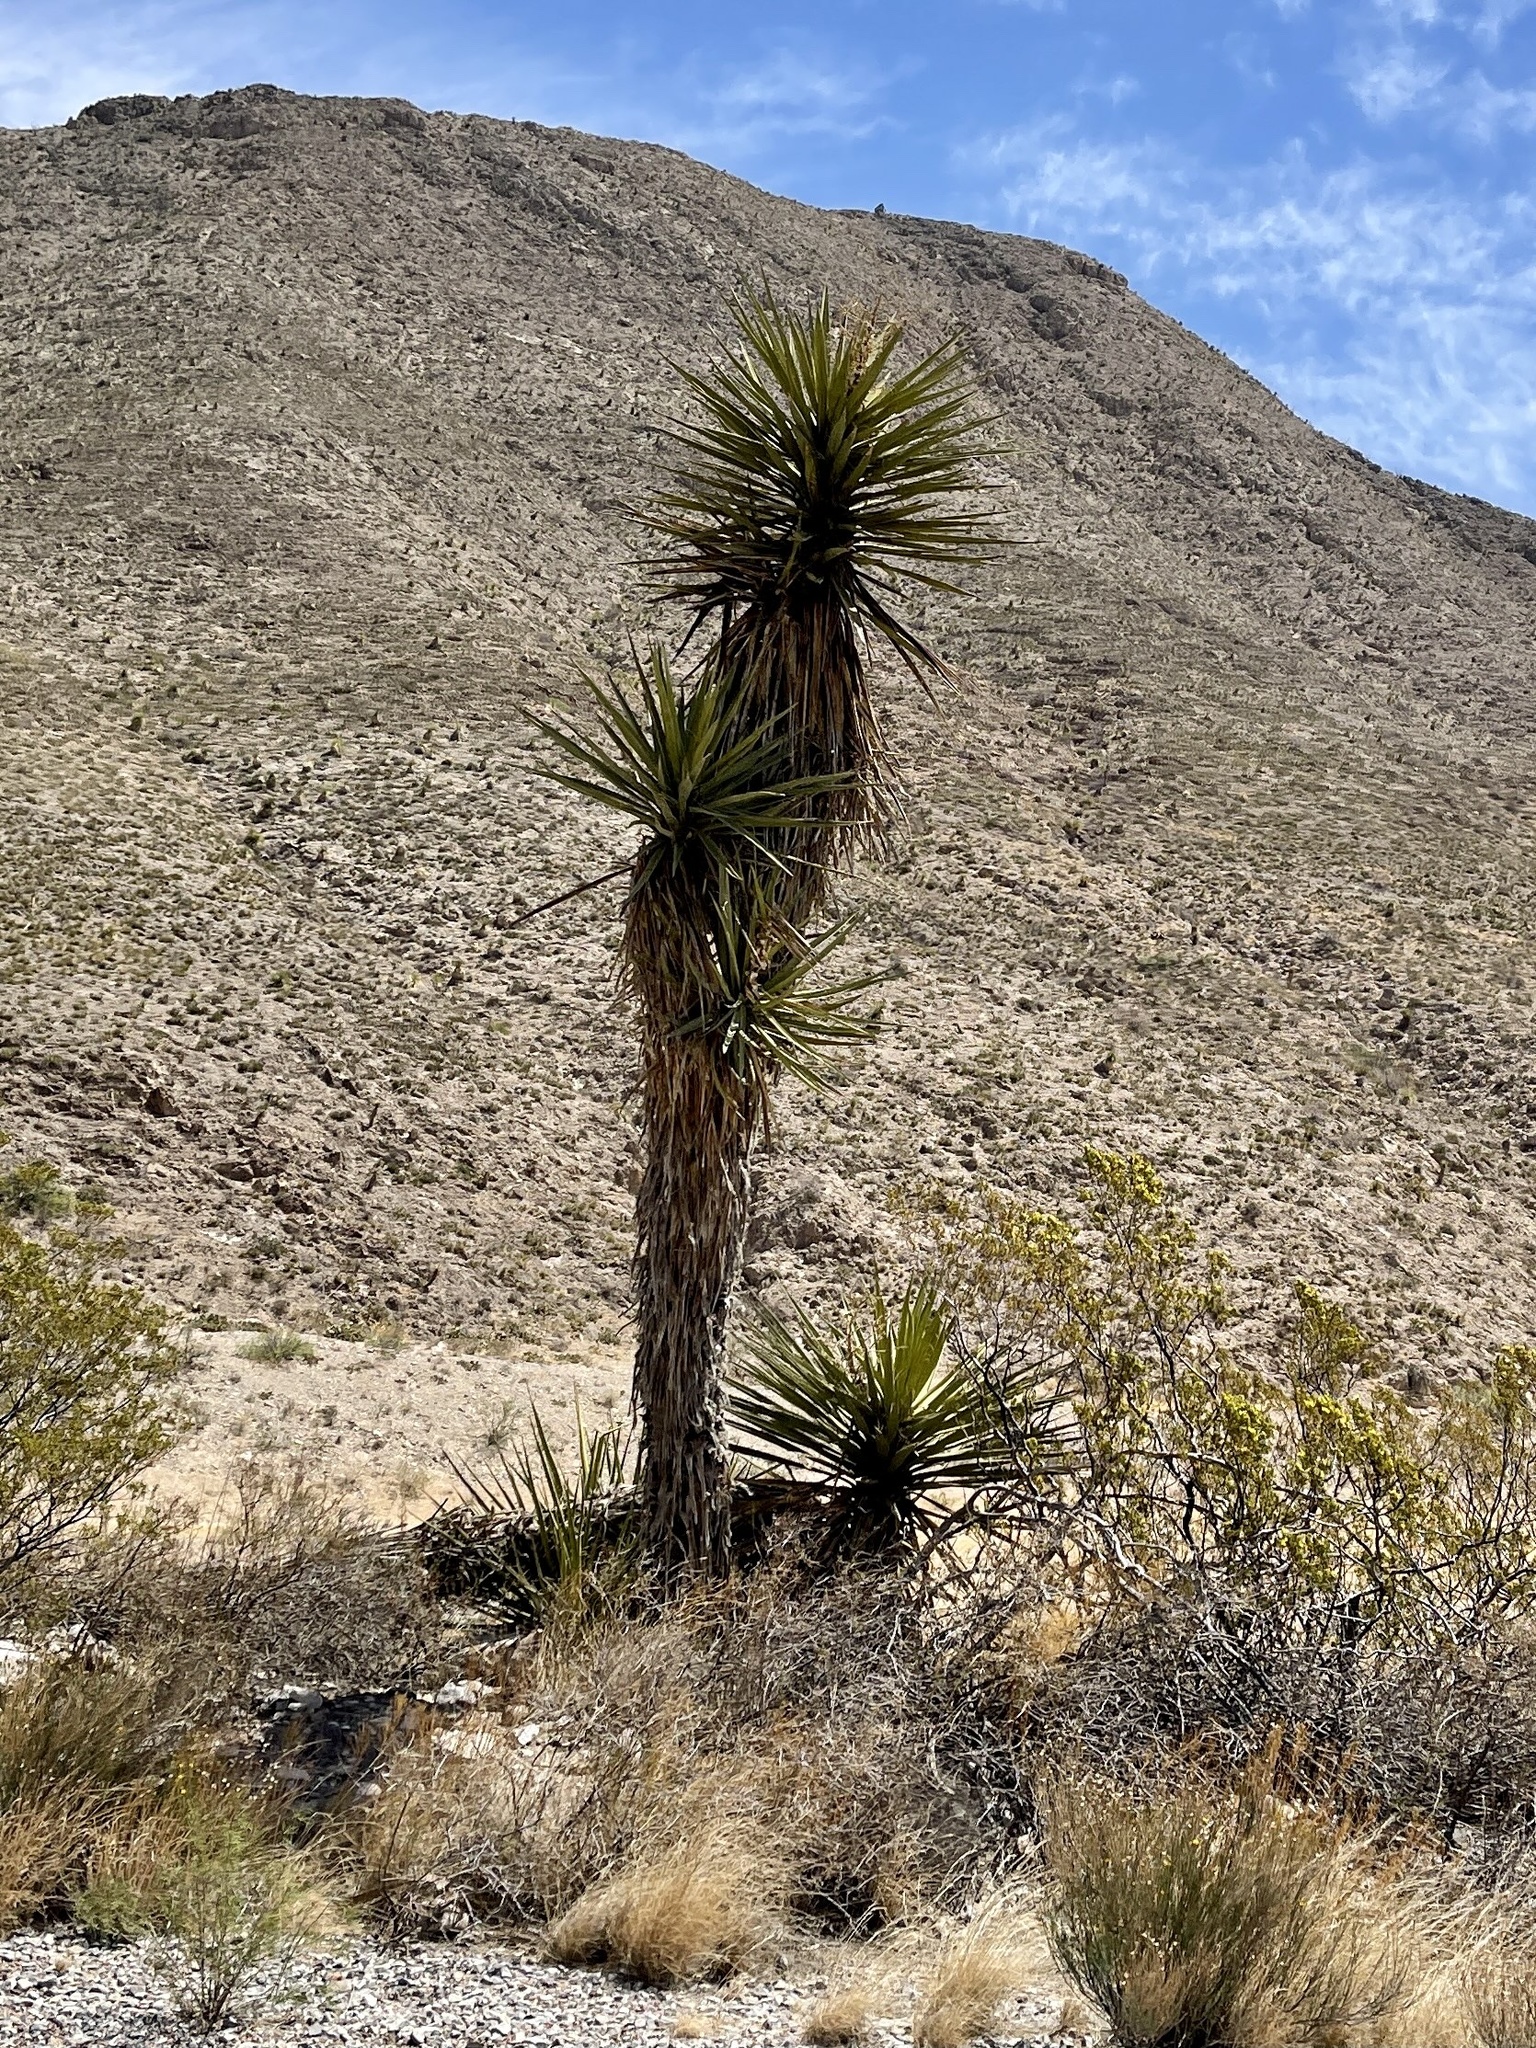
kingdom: Plantae
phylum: Tracheophyta
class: Liliopsida
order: Asparagales
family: Asparagaceae
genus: Yucca
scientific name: Yucca treculiana
